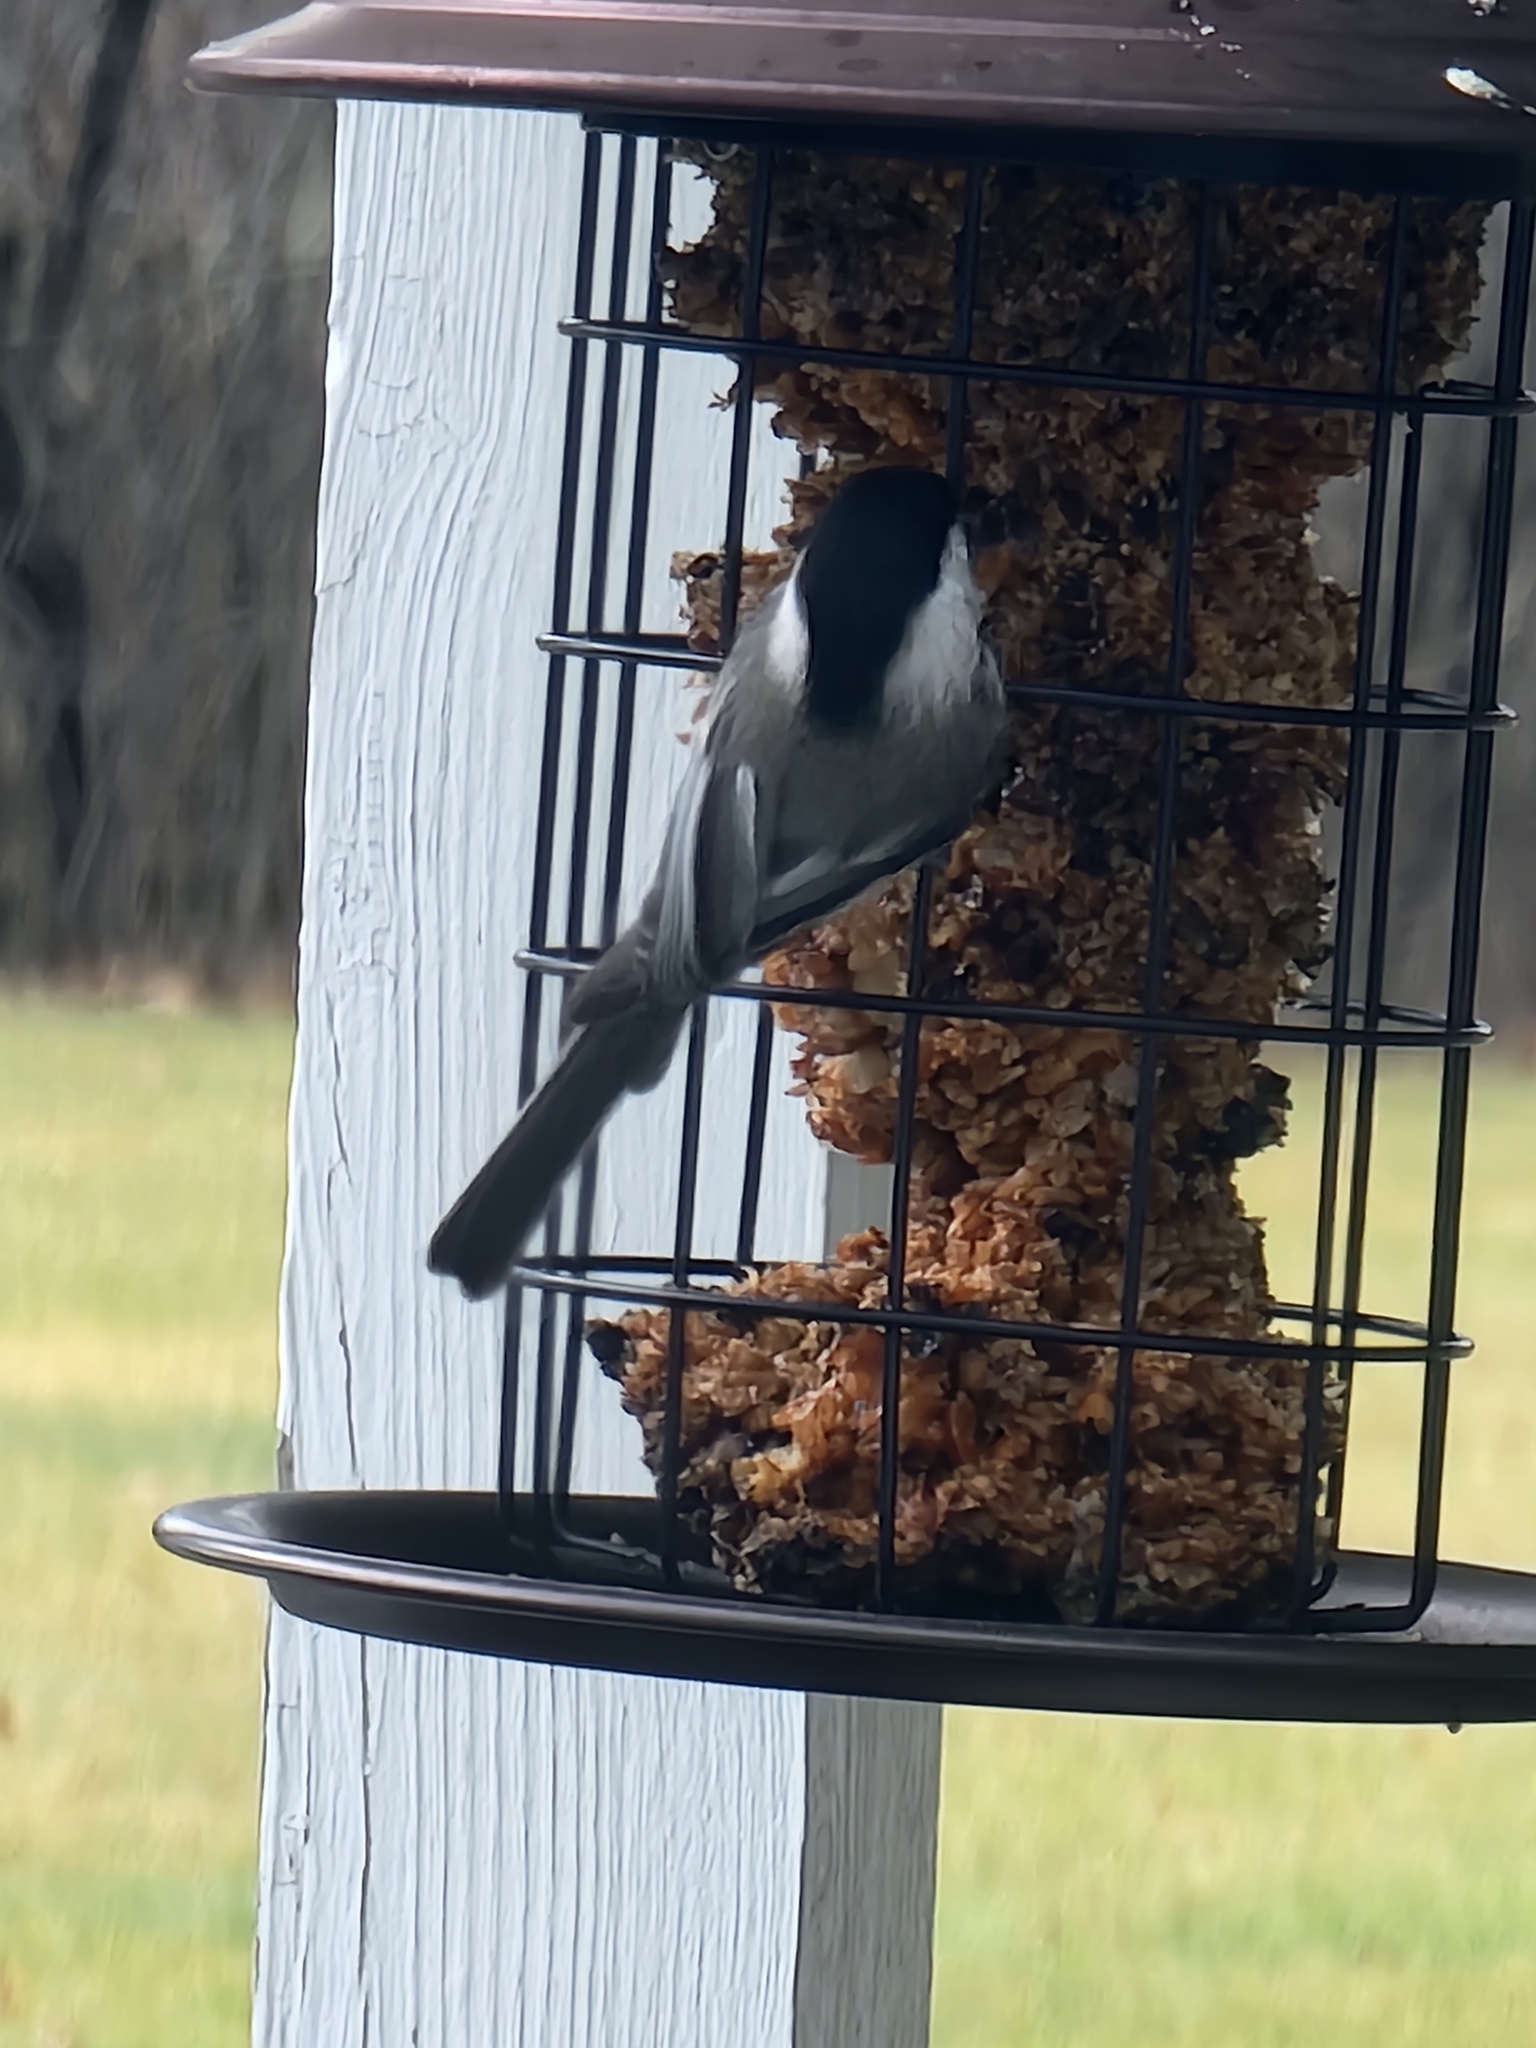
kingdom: Animalia
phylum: Chordata
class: Aves
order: Passeriformes
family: Paridae
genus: Poecile
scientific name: Poecile atricapillus
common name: Black-capped chickadee
